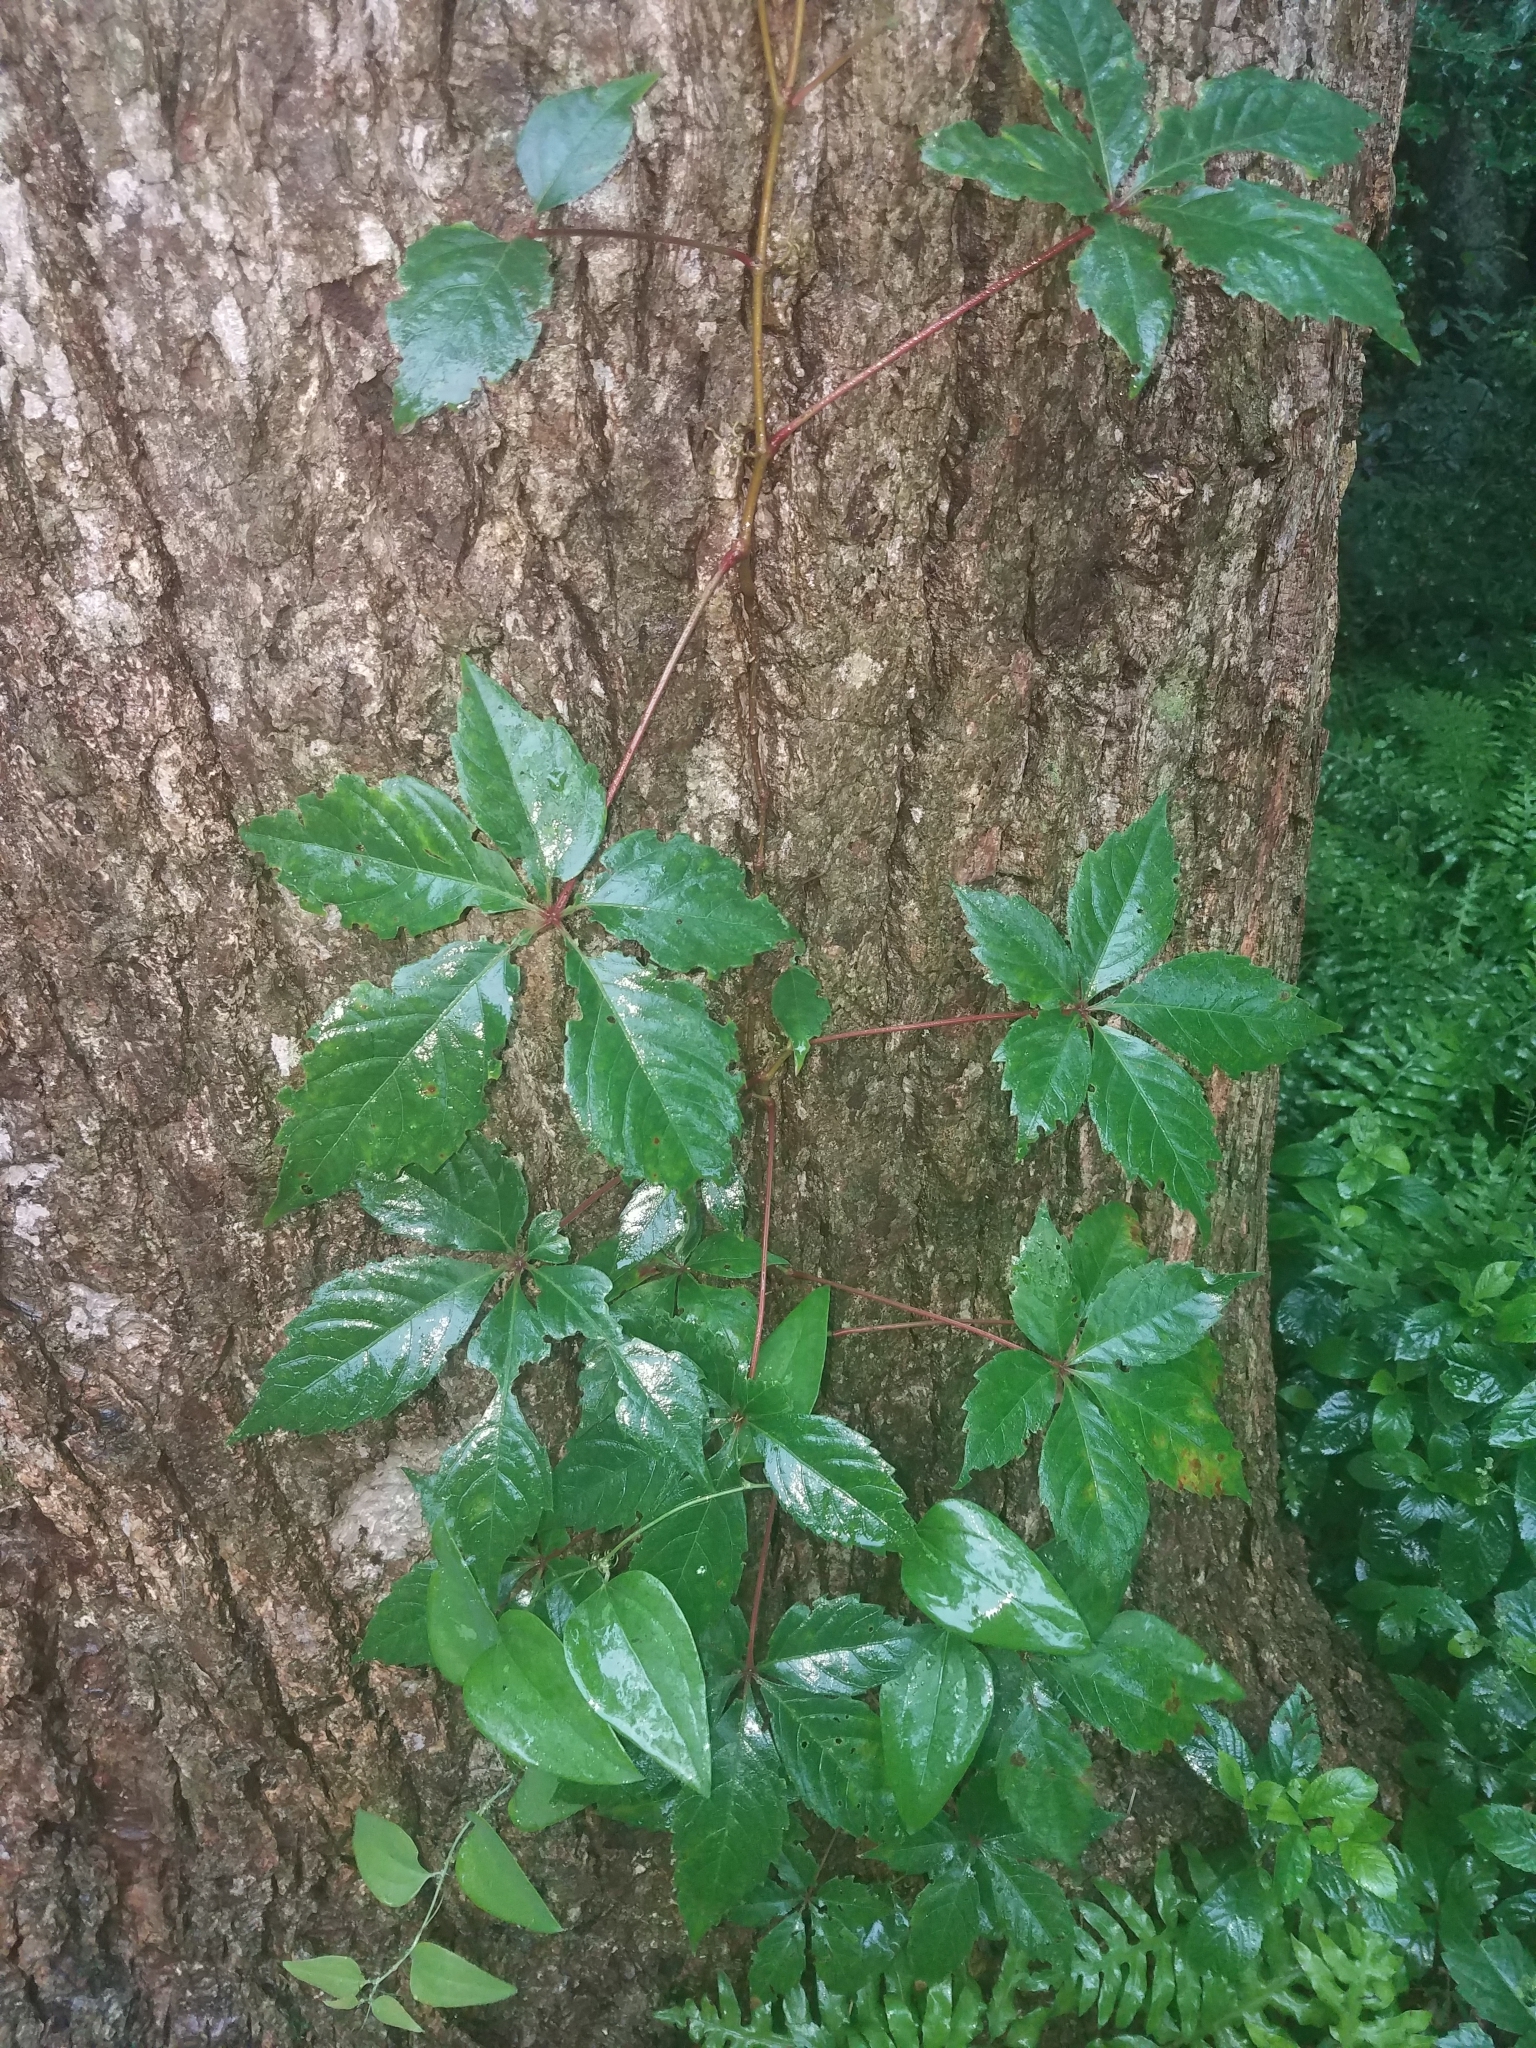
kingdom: Plantae
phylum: Tracheophyta
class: Magnoliopsida
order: Vitales
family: Vitaceae
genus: Parthenocissus
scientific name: Parthenocissus quinquefolia
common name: Virginia-creeper
